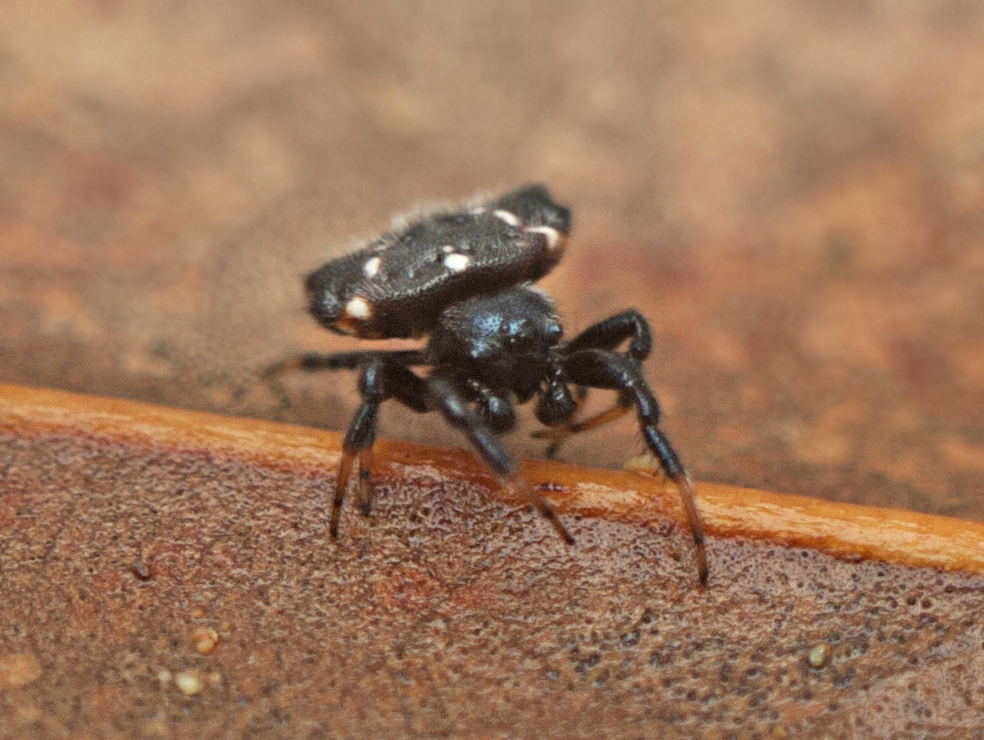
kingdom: Animalia
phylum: Arthropoda
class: Arachnida
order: Araneae
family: Araneidae
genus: Austracantha
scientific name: Austracantha minax
